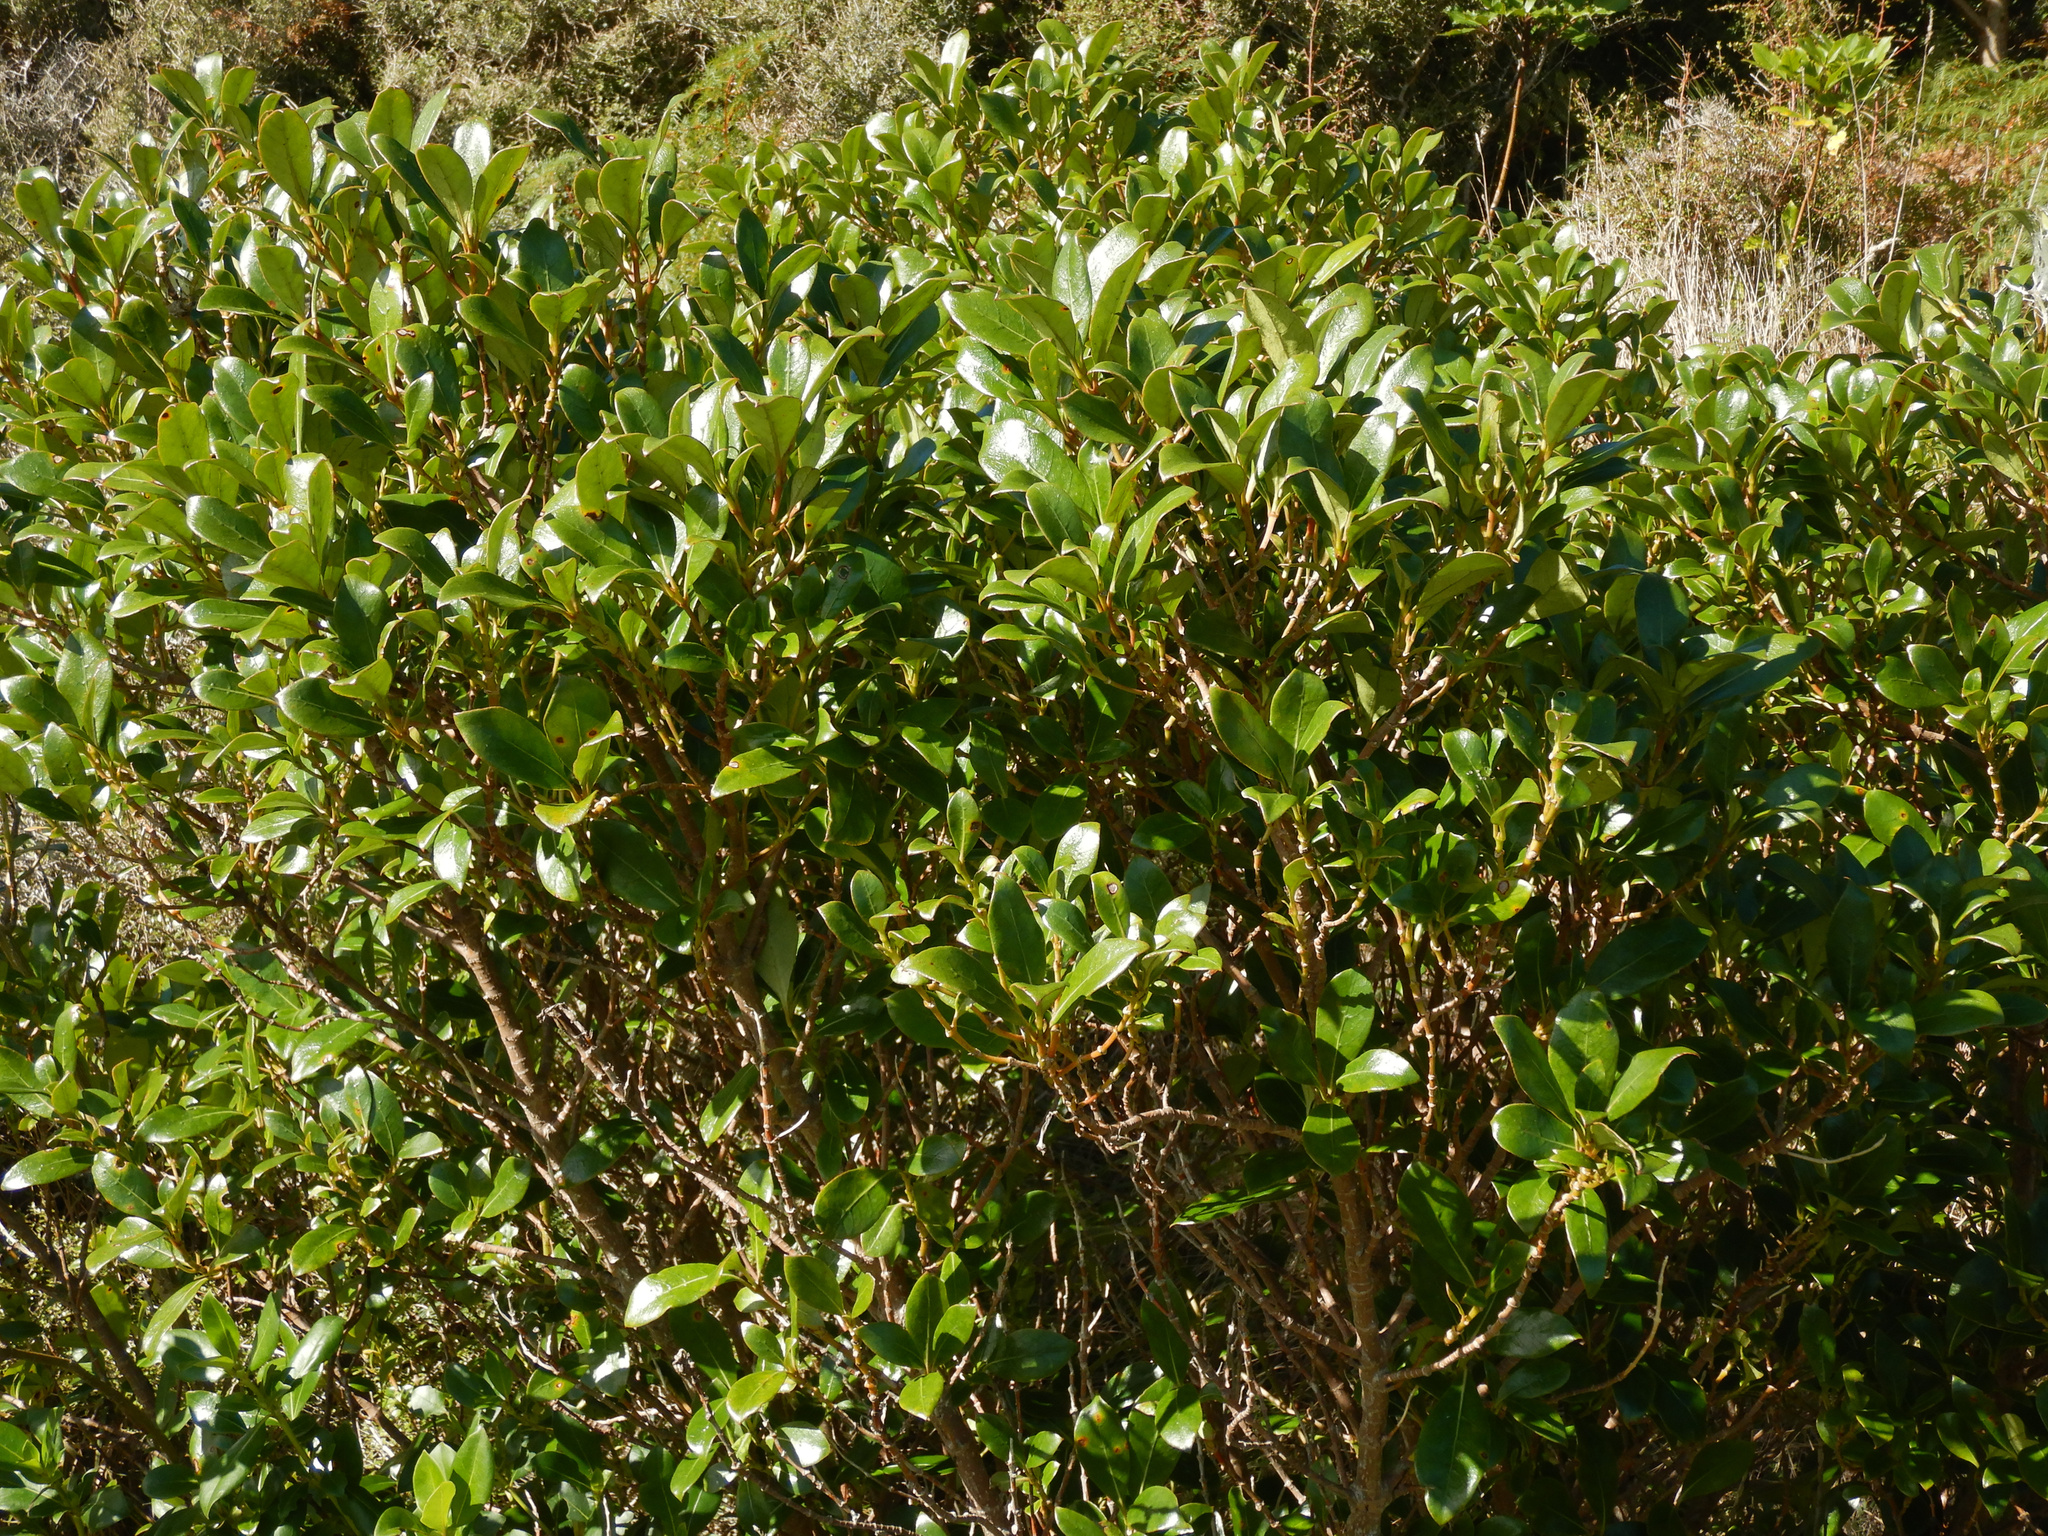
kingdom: Plantae
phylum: Tracheophyta
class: Magnoliopsida
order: Gentianales
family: Rubiaceae
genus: Coprosma
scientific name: Coprosma lucida
